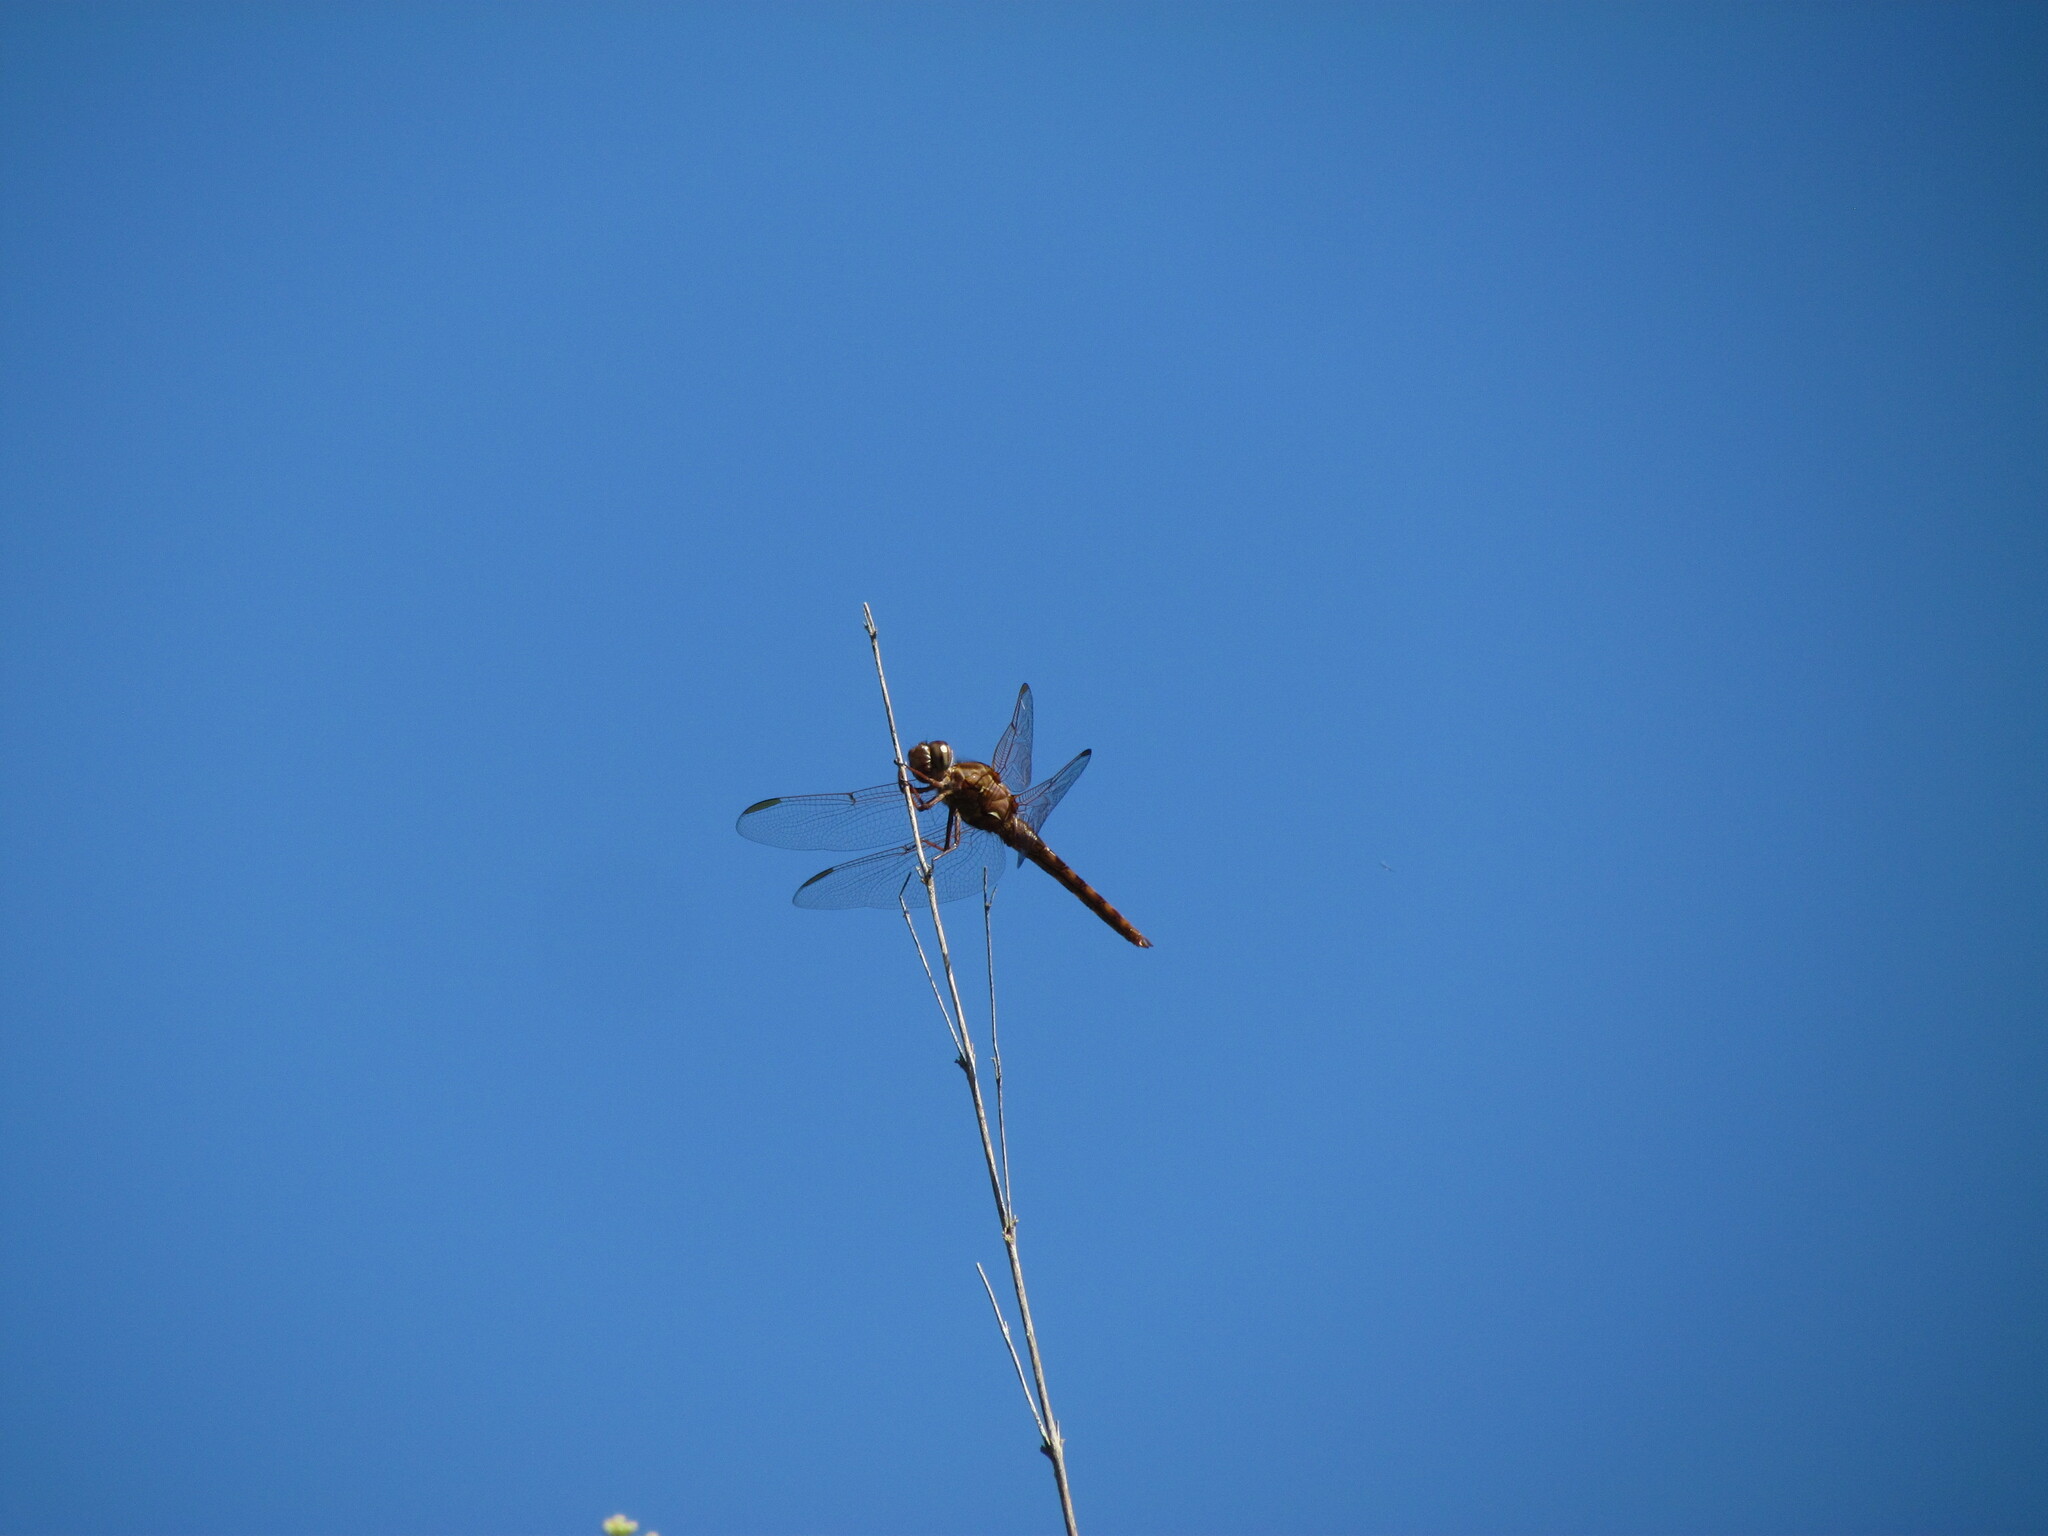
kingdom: Animalia
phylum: Arthropoda
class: Insecta
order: Odonata
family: Libellulidae
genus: Orthemis
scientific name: Orthemis nodiplaga
